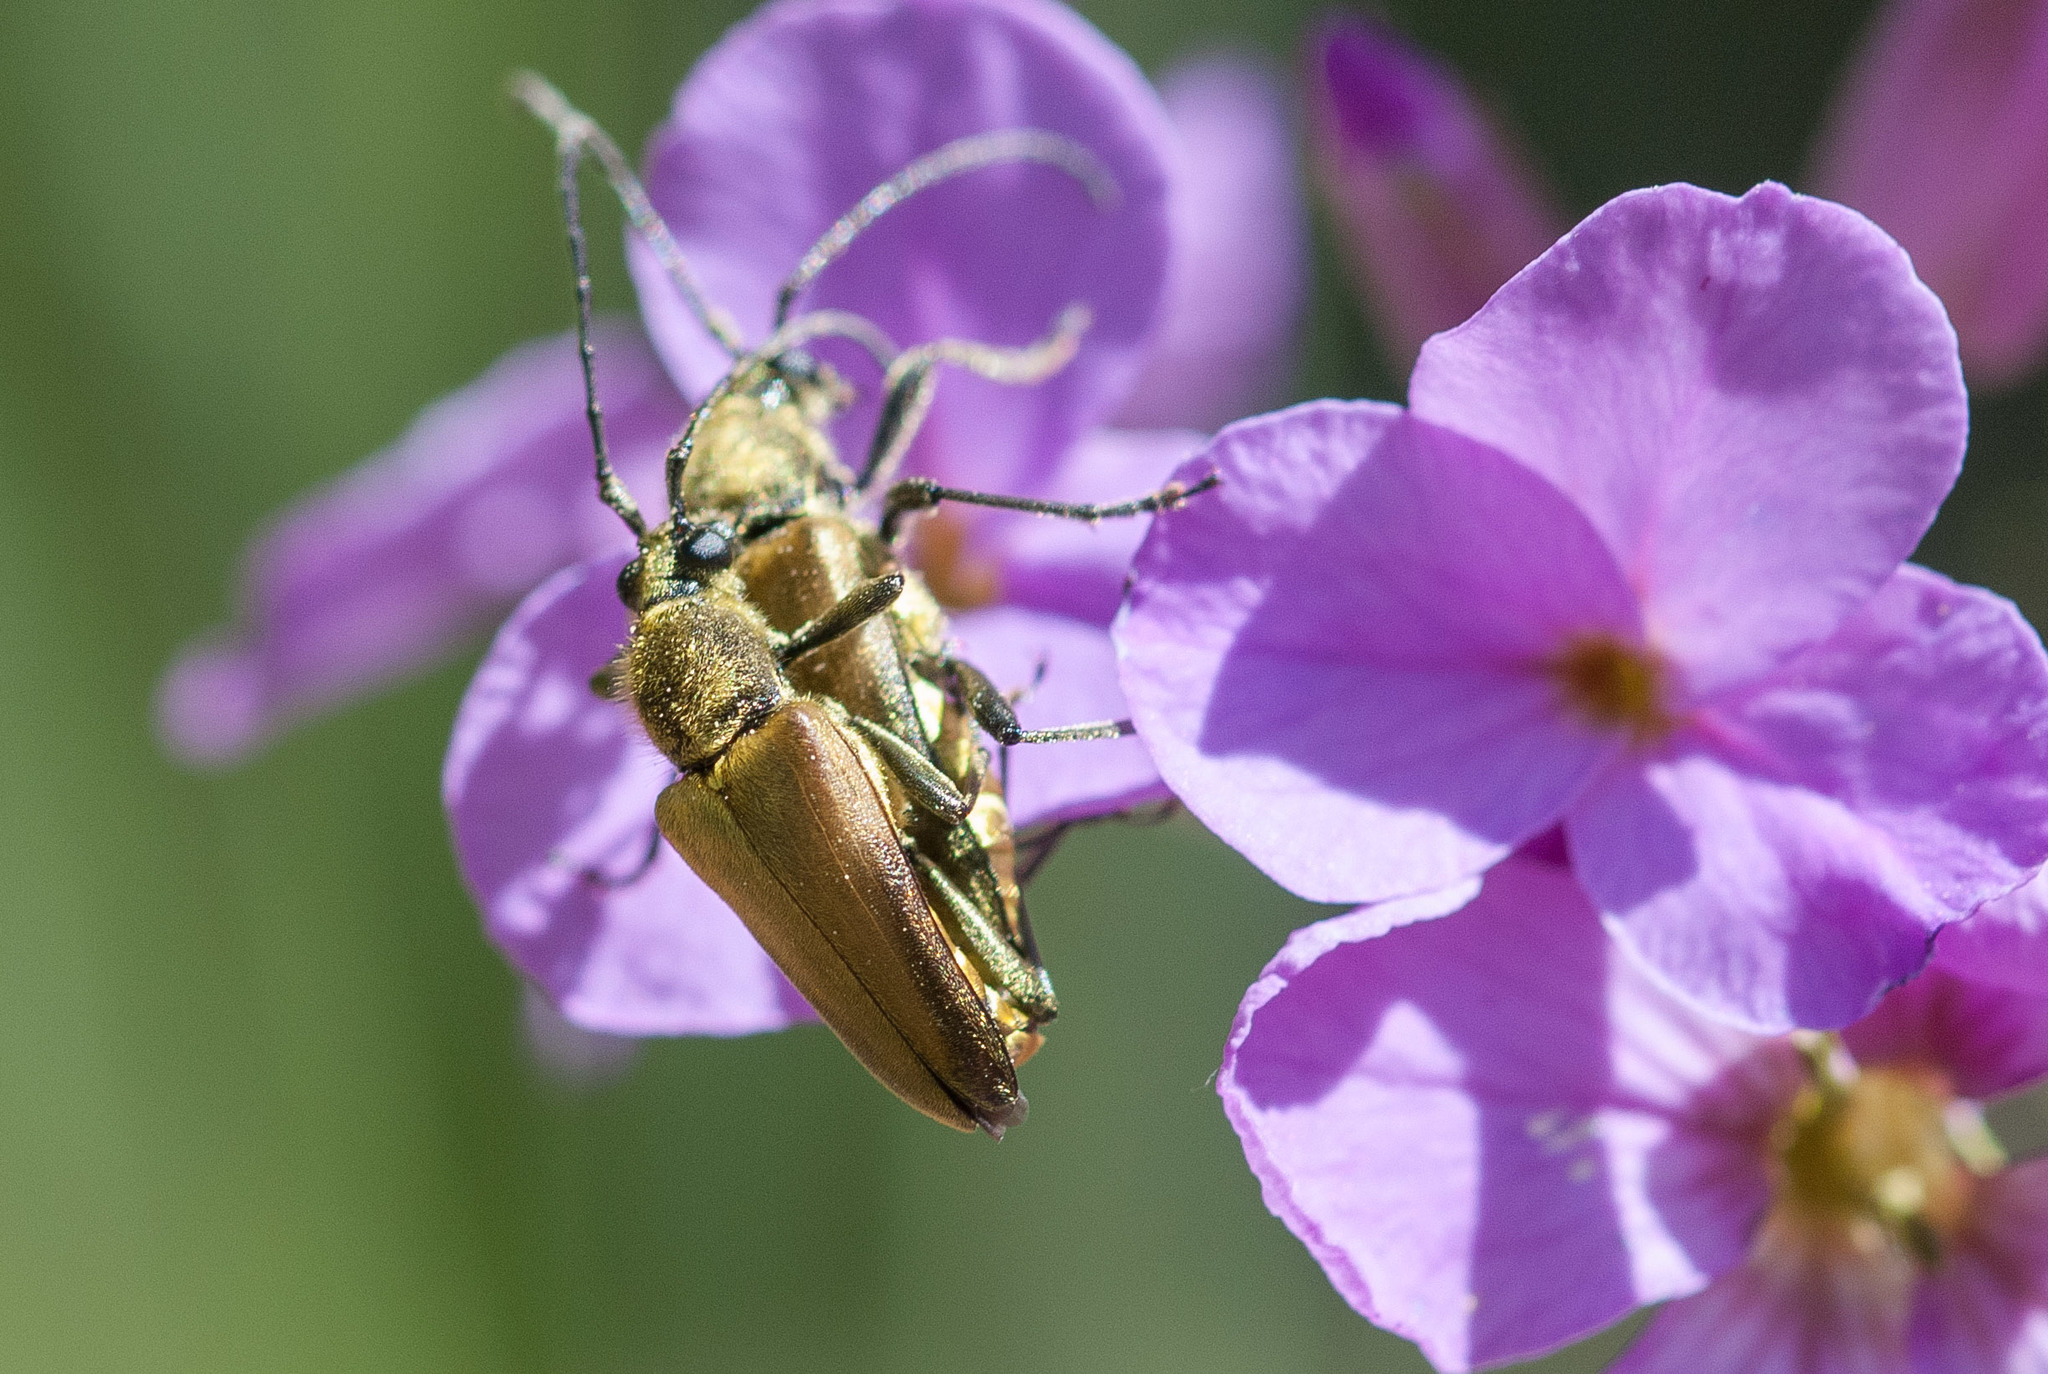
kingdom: Animalia
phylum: Arthropoda
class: Insecta
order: Coleoptera
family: Cerambycidae
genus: Cosmosalia
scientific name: Cosmosalia chrysocoma
